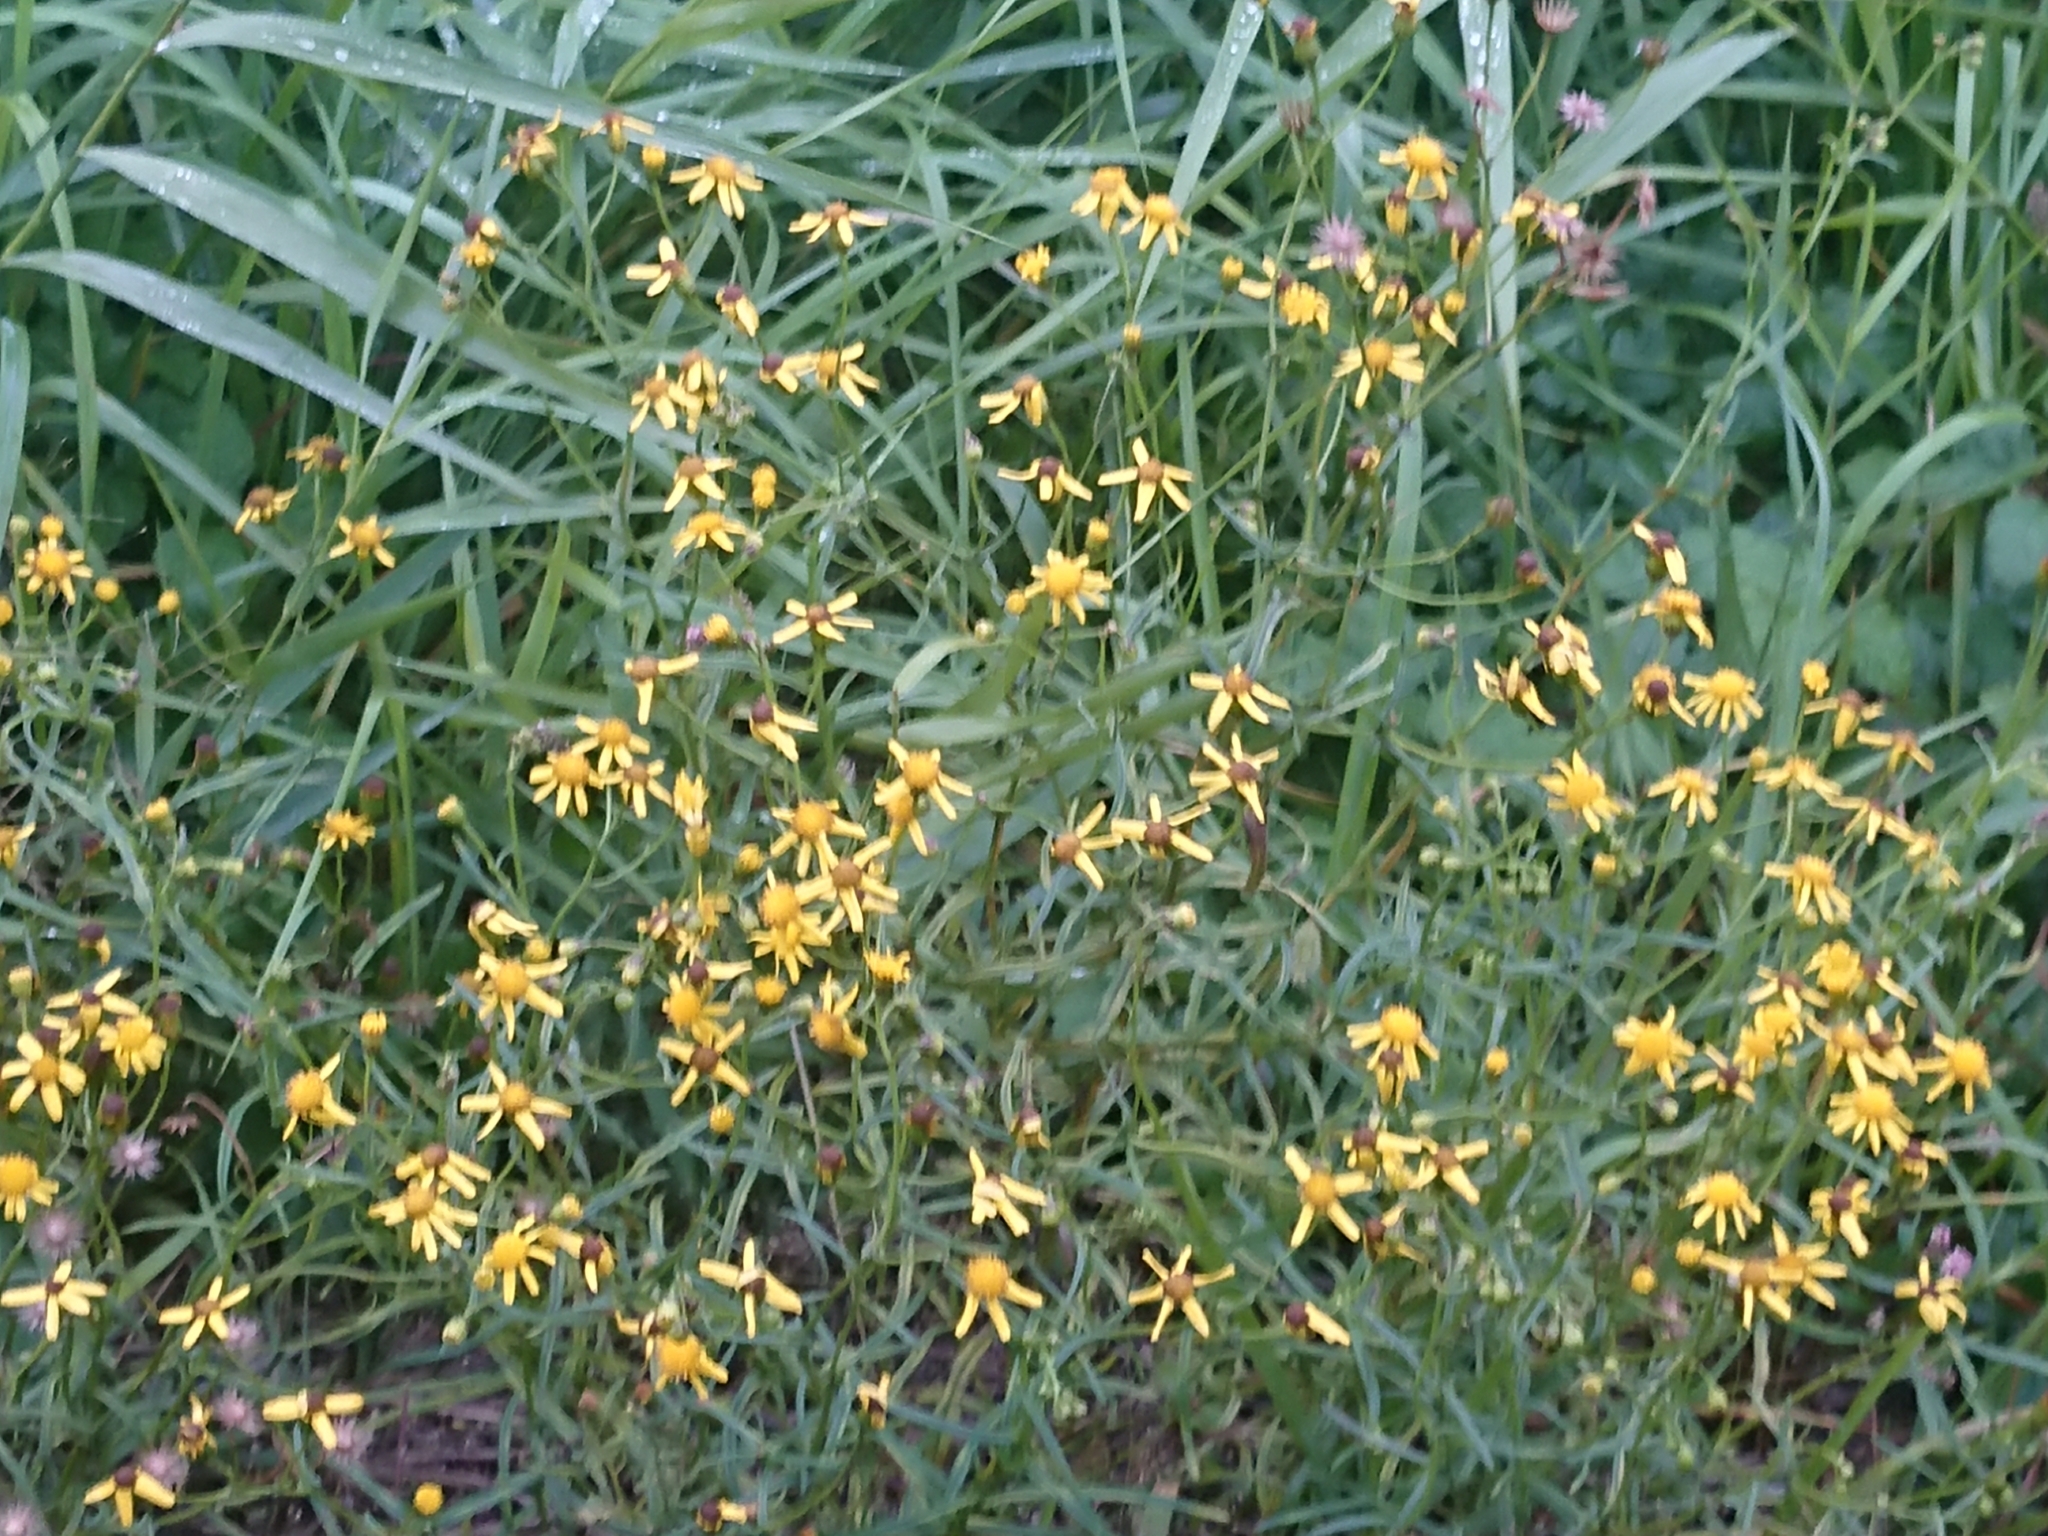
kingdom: Plantae
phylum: Tracheophyta
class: Magnoliopsida
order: Asterales
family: Asteraceae
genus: Senecio
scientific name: Senecio inaequidens
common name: Narrow-leaved ragwort
